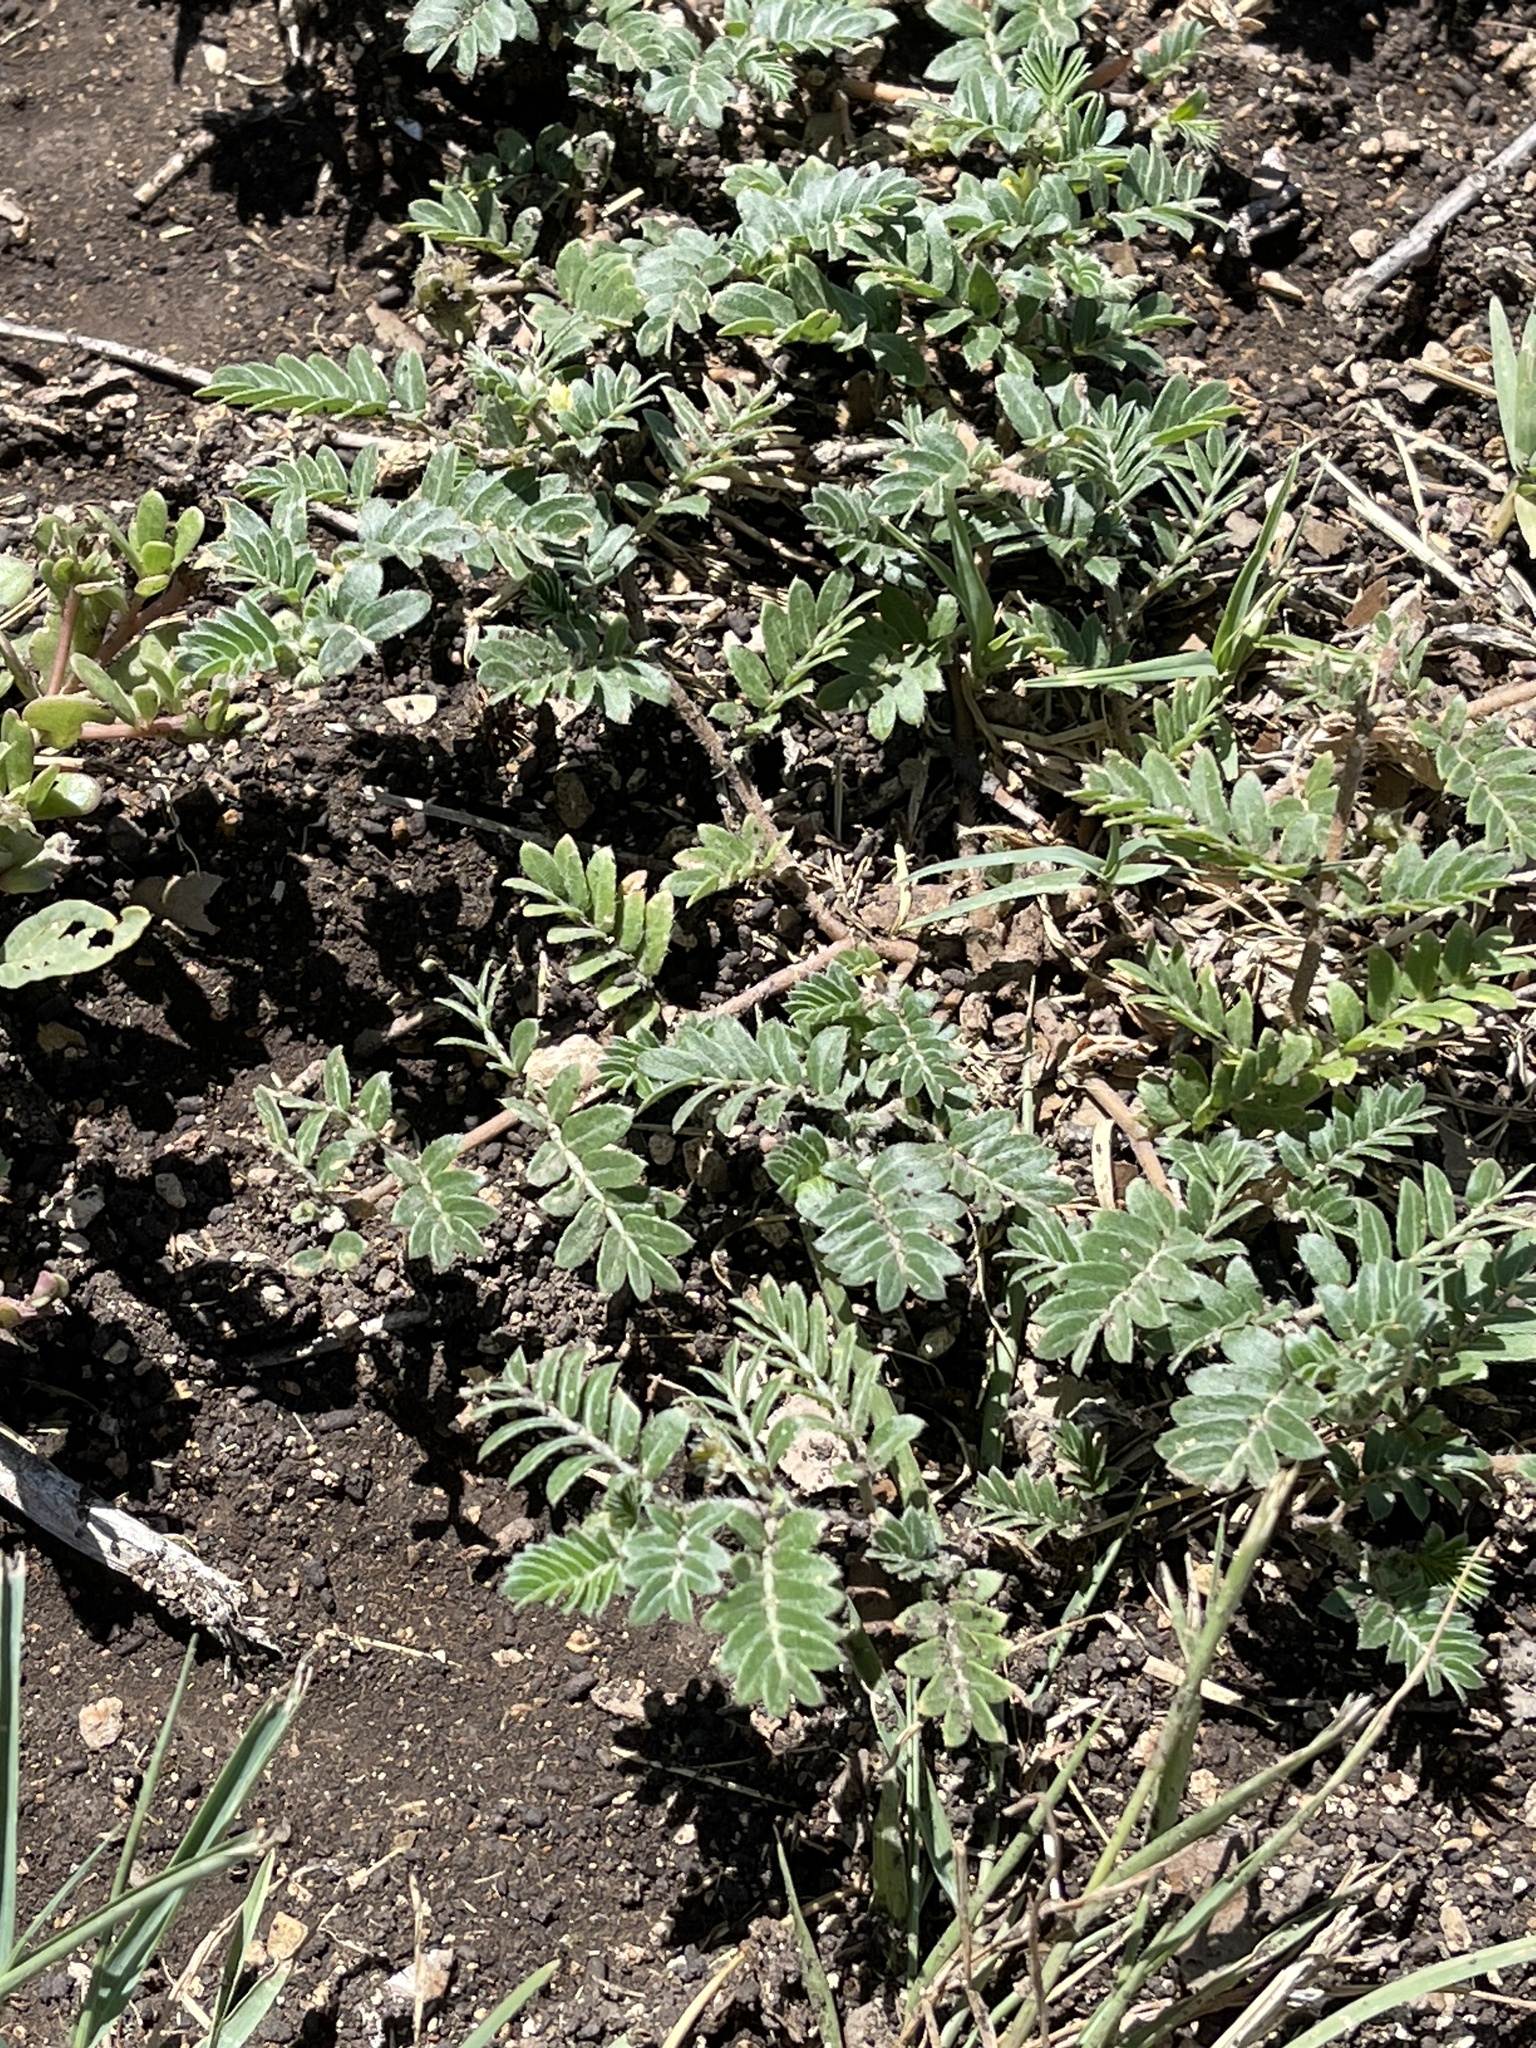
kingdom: Plantae
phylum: Tracheophyta
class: Magnoliopsida
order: Zygophyllales
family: Zygophyllaceae
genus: Tribulus
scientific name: Tribulus terrestris
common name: Puncturevine
